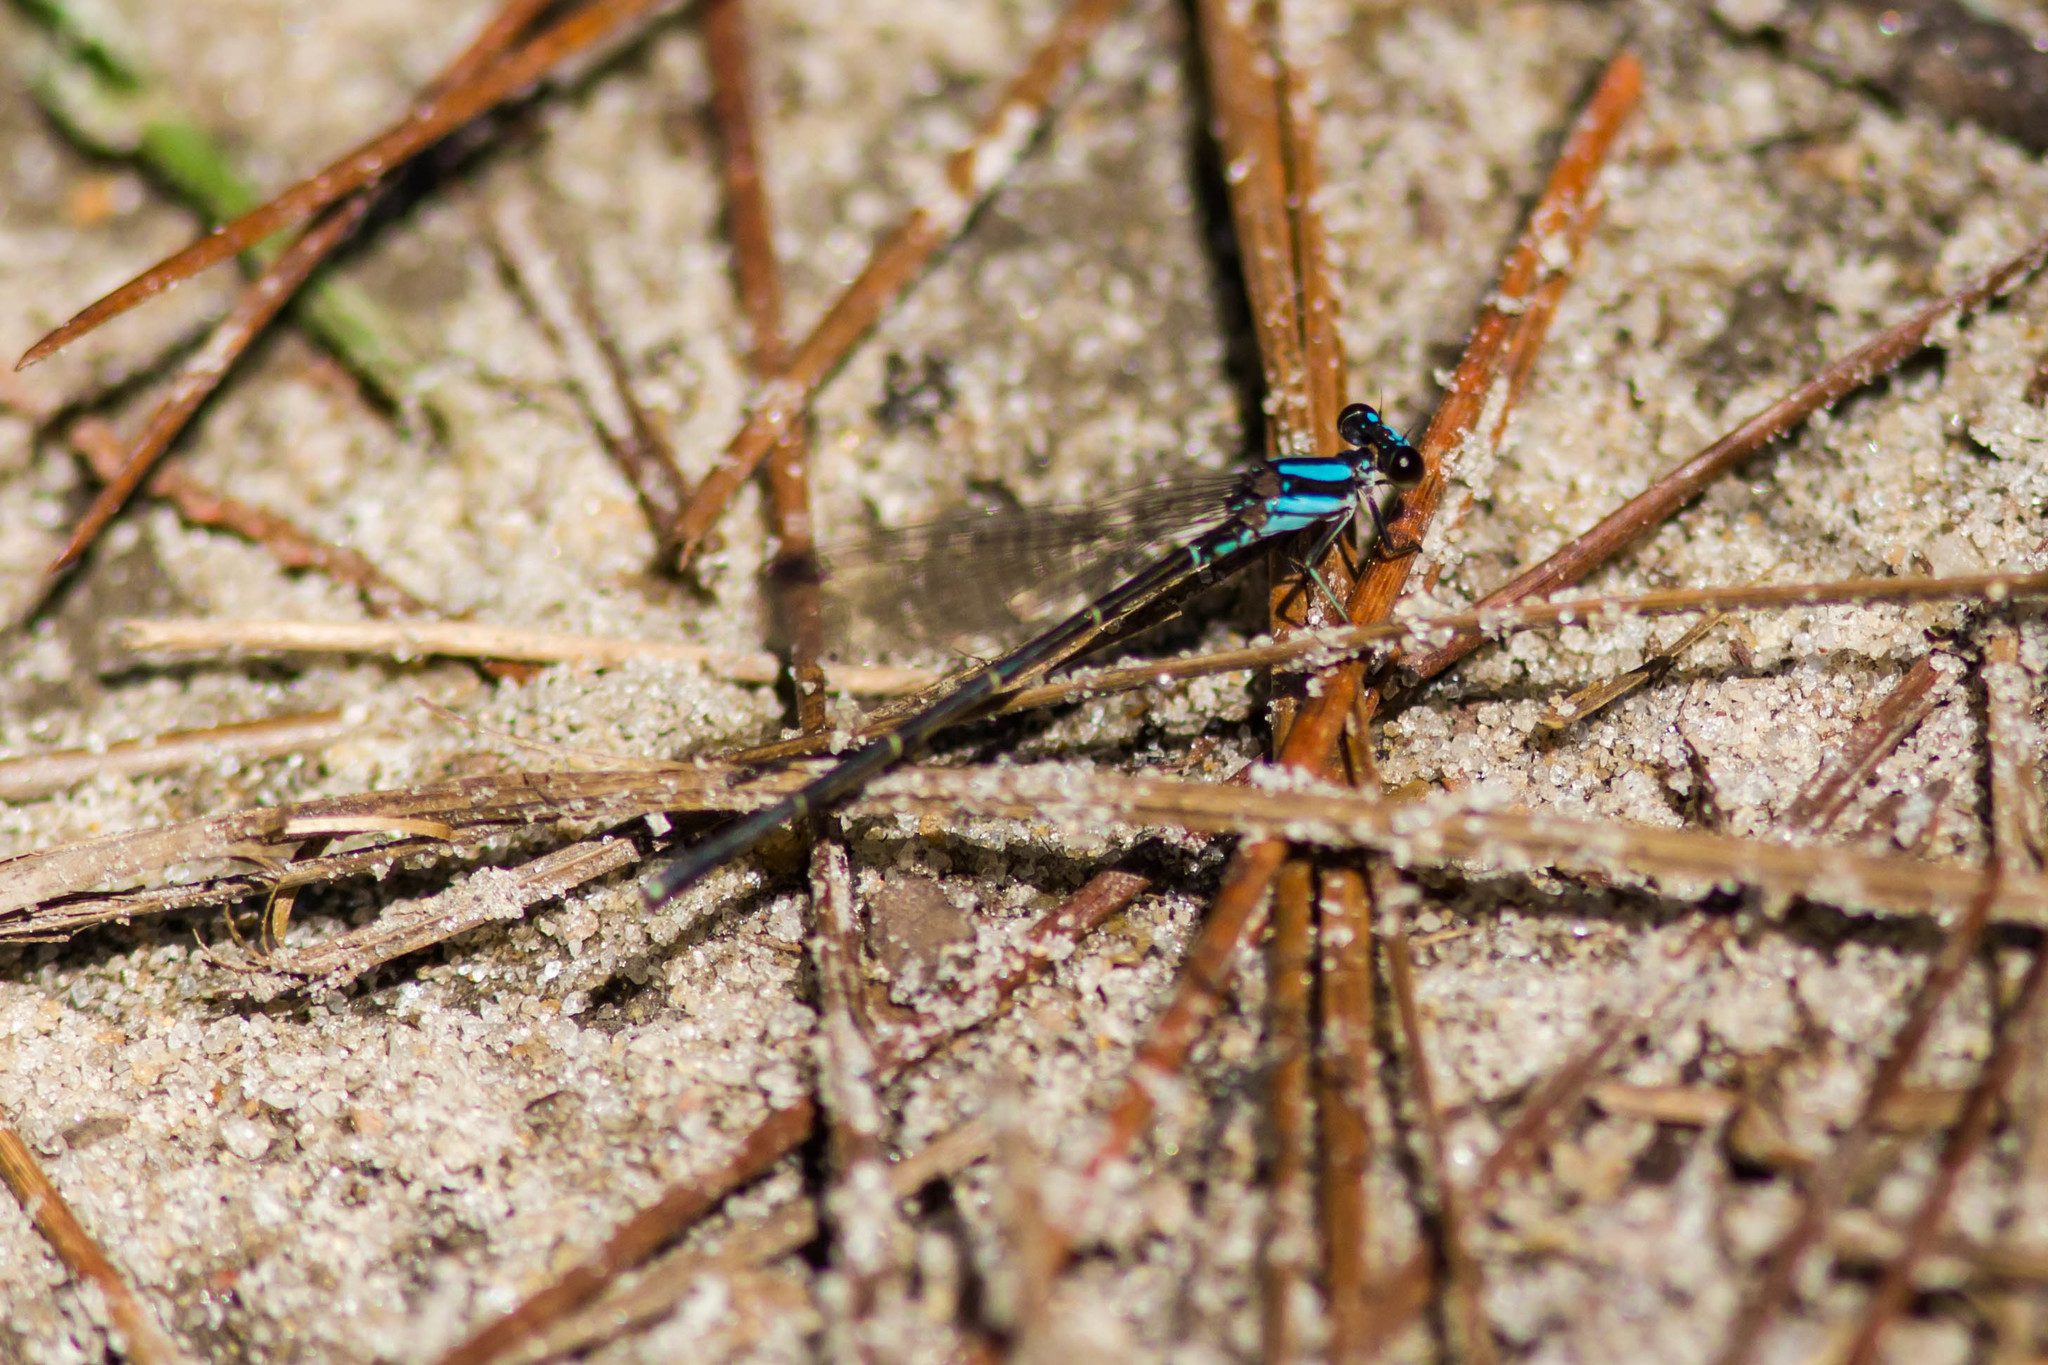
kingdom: Animalia
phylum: Arthropoda
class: Insecta
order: Odonata
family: Coenagrionidae
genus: Argia
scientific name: Argia tibialis
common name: Blue-tipped dancer
